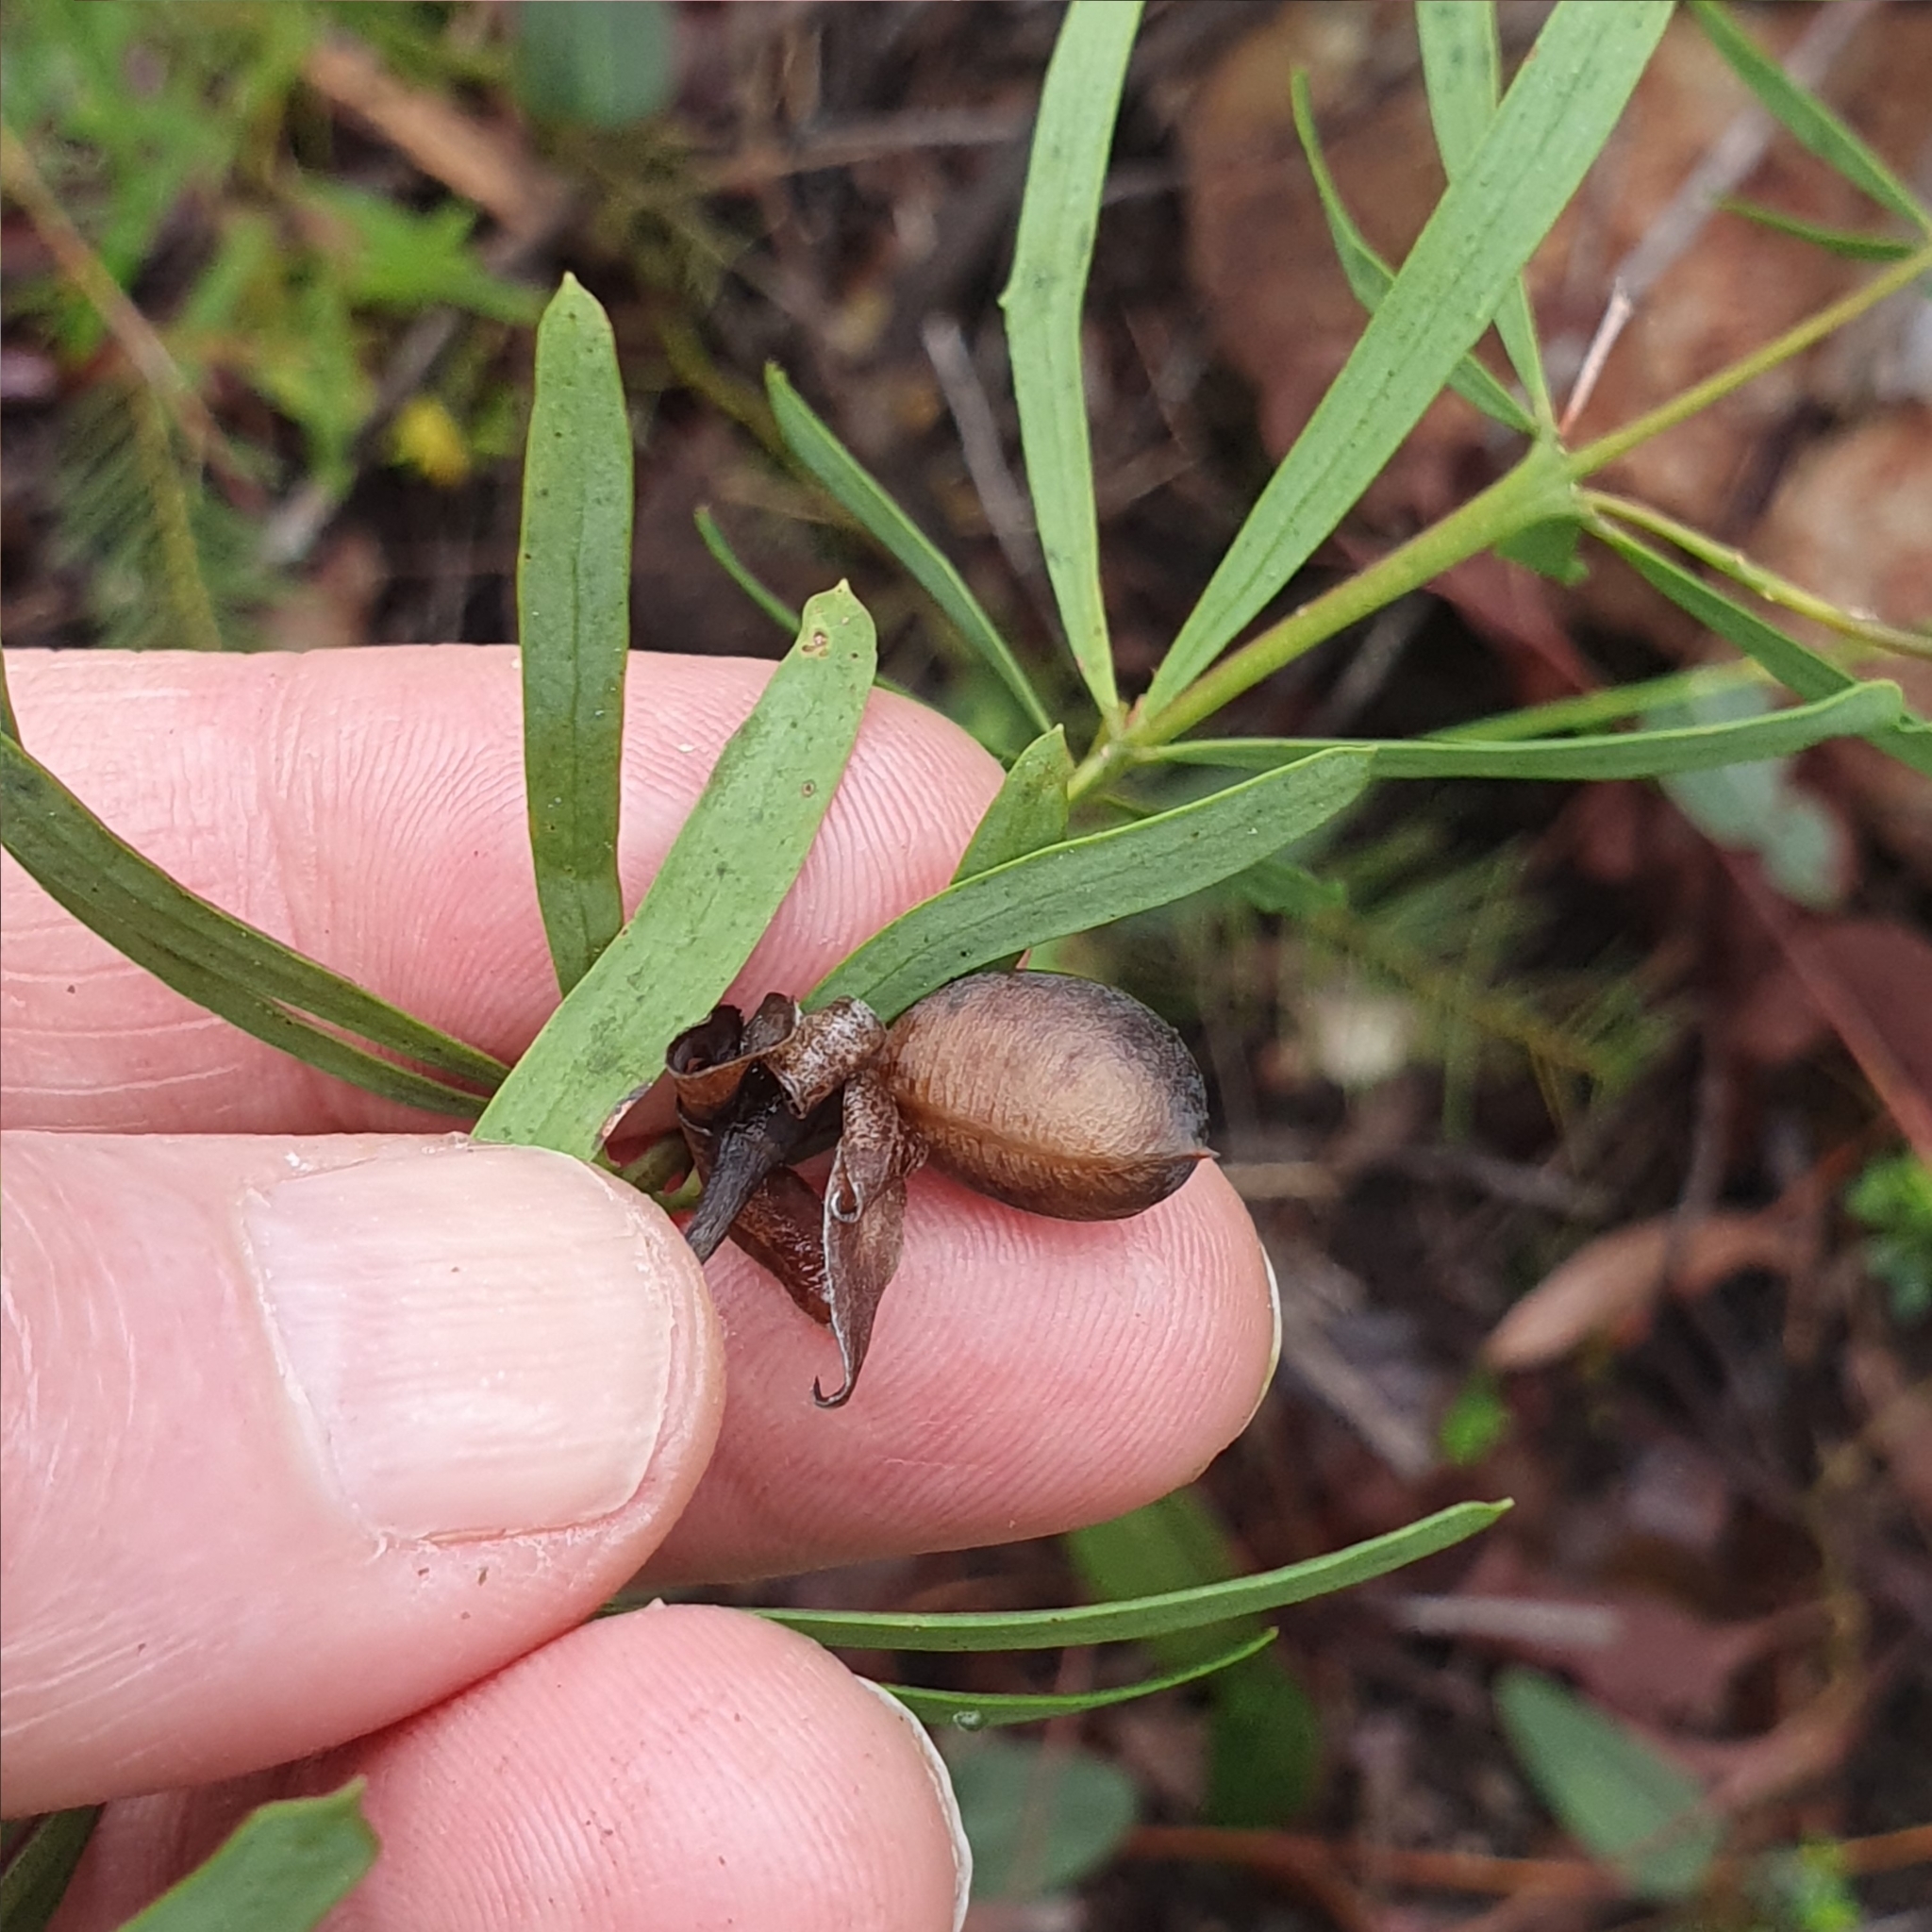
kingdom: Plantae
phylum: Tracheophyta
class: Magnoliopsida
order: Fabales
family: Fabaceae
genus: Gompholobium
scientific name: Gompholobium latifolium
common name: Broadleaf wedge-pea
